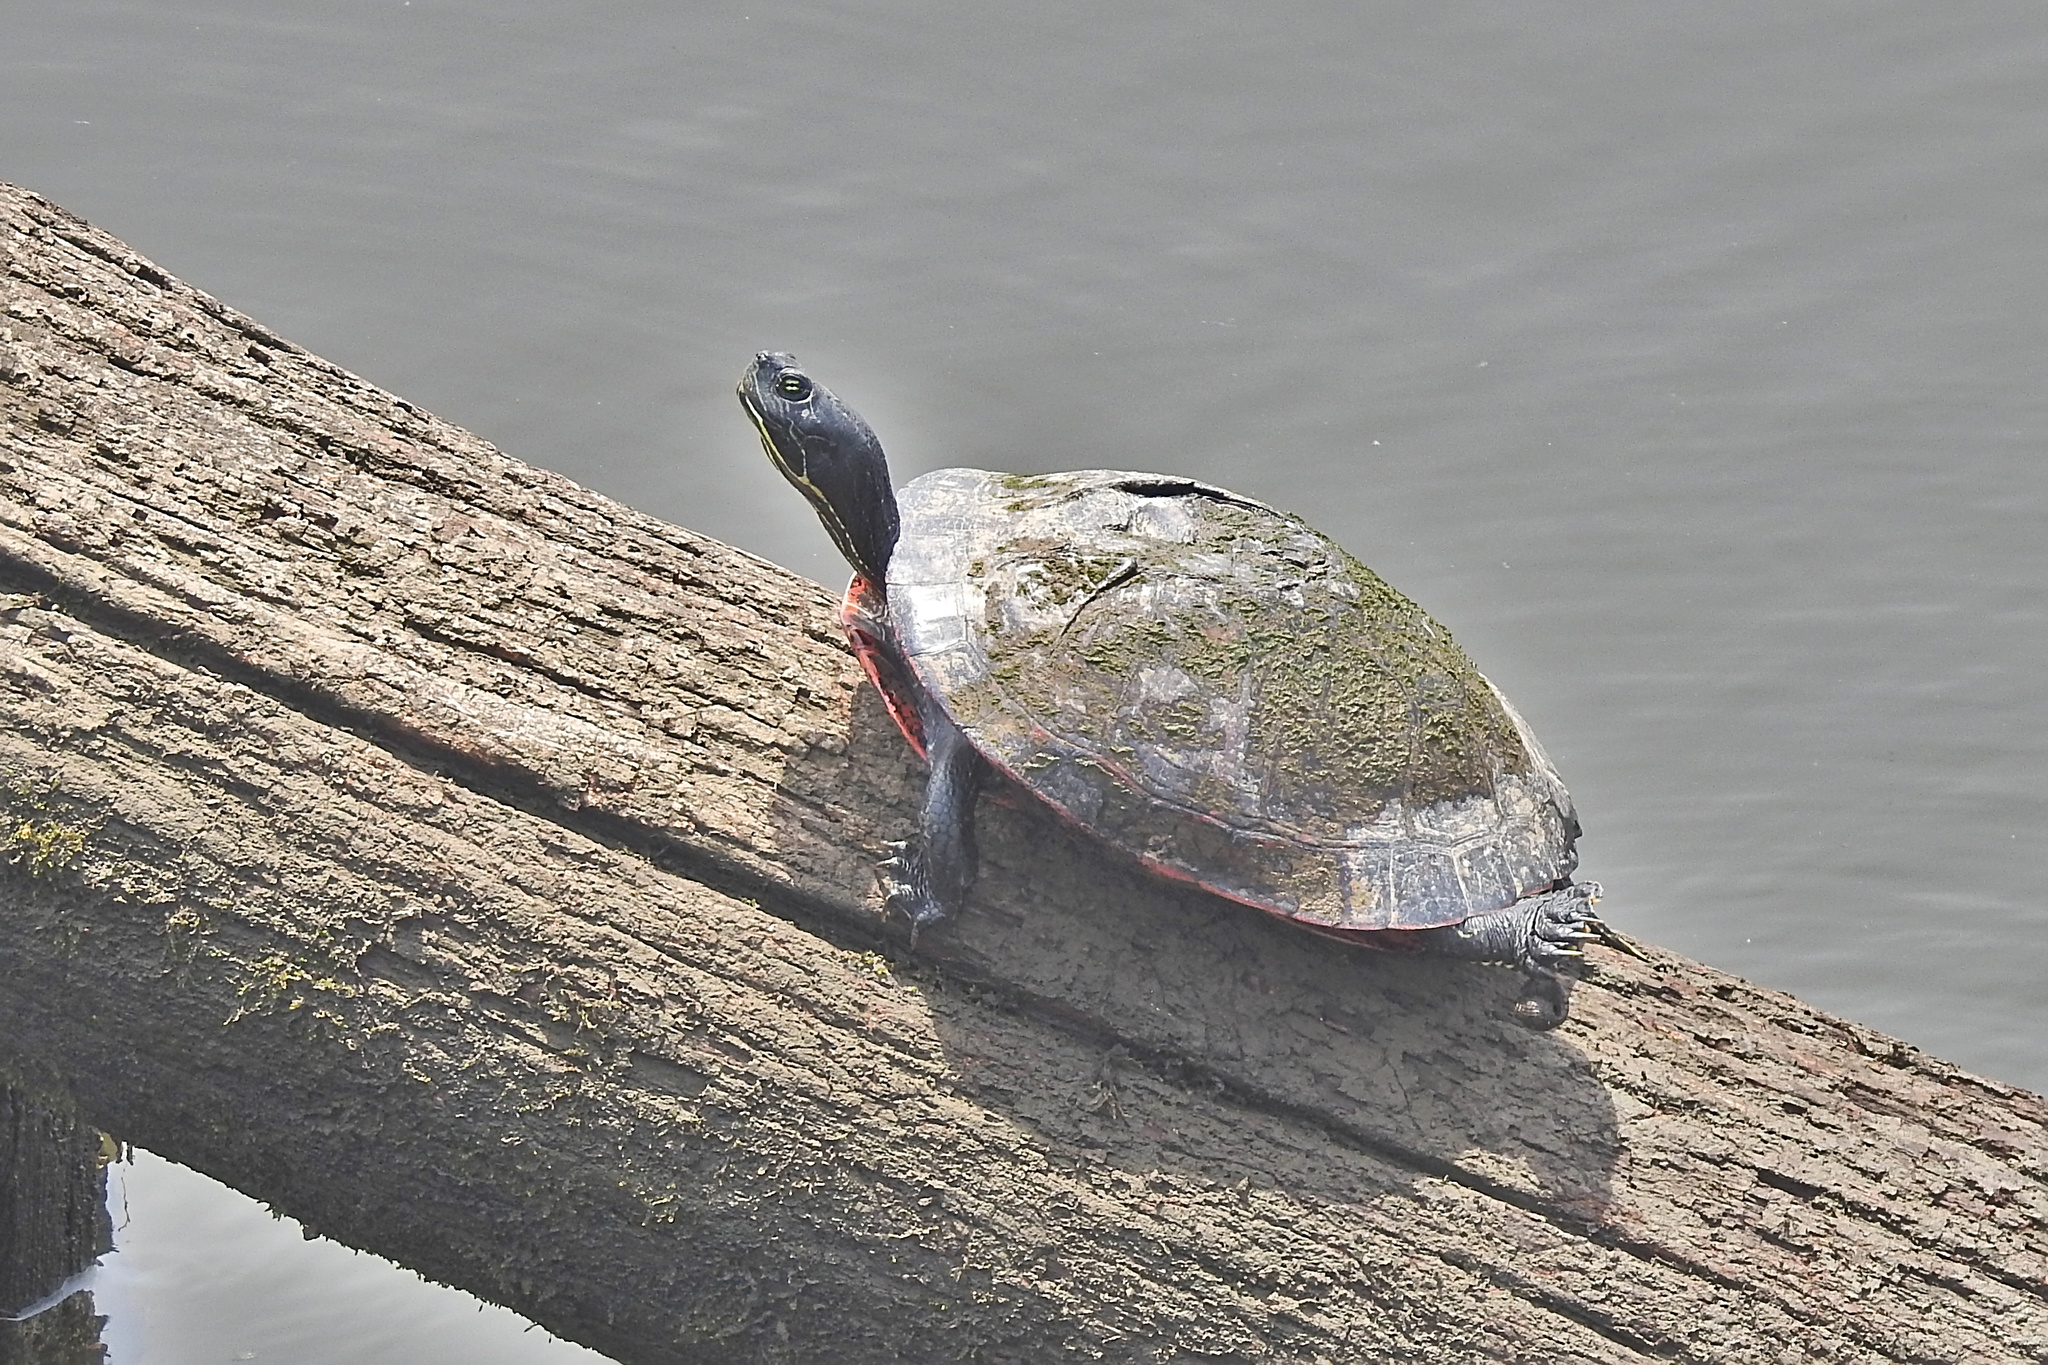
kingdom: Animalia
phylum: Chordata
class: Testudines
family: Emydidae
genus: Pseudemys
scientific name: Pseudemys rubriventris
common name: American red-bellied turtle
